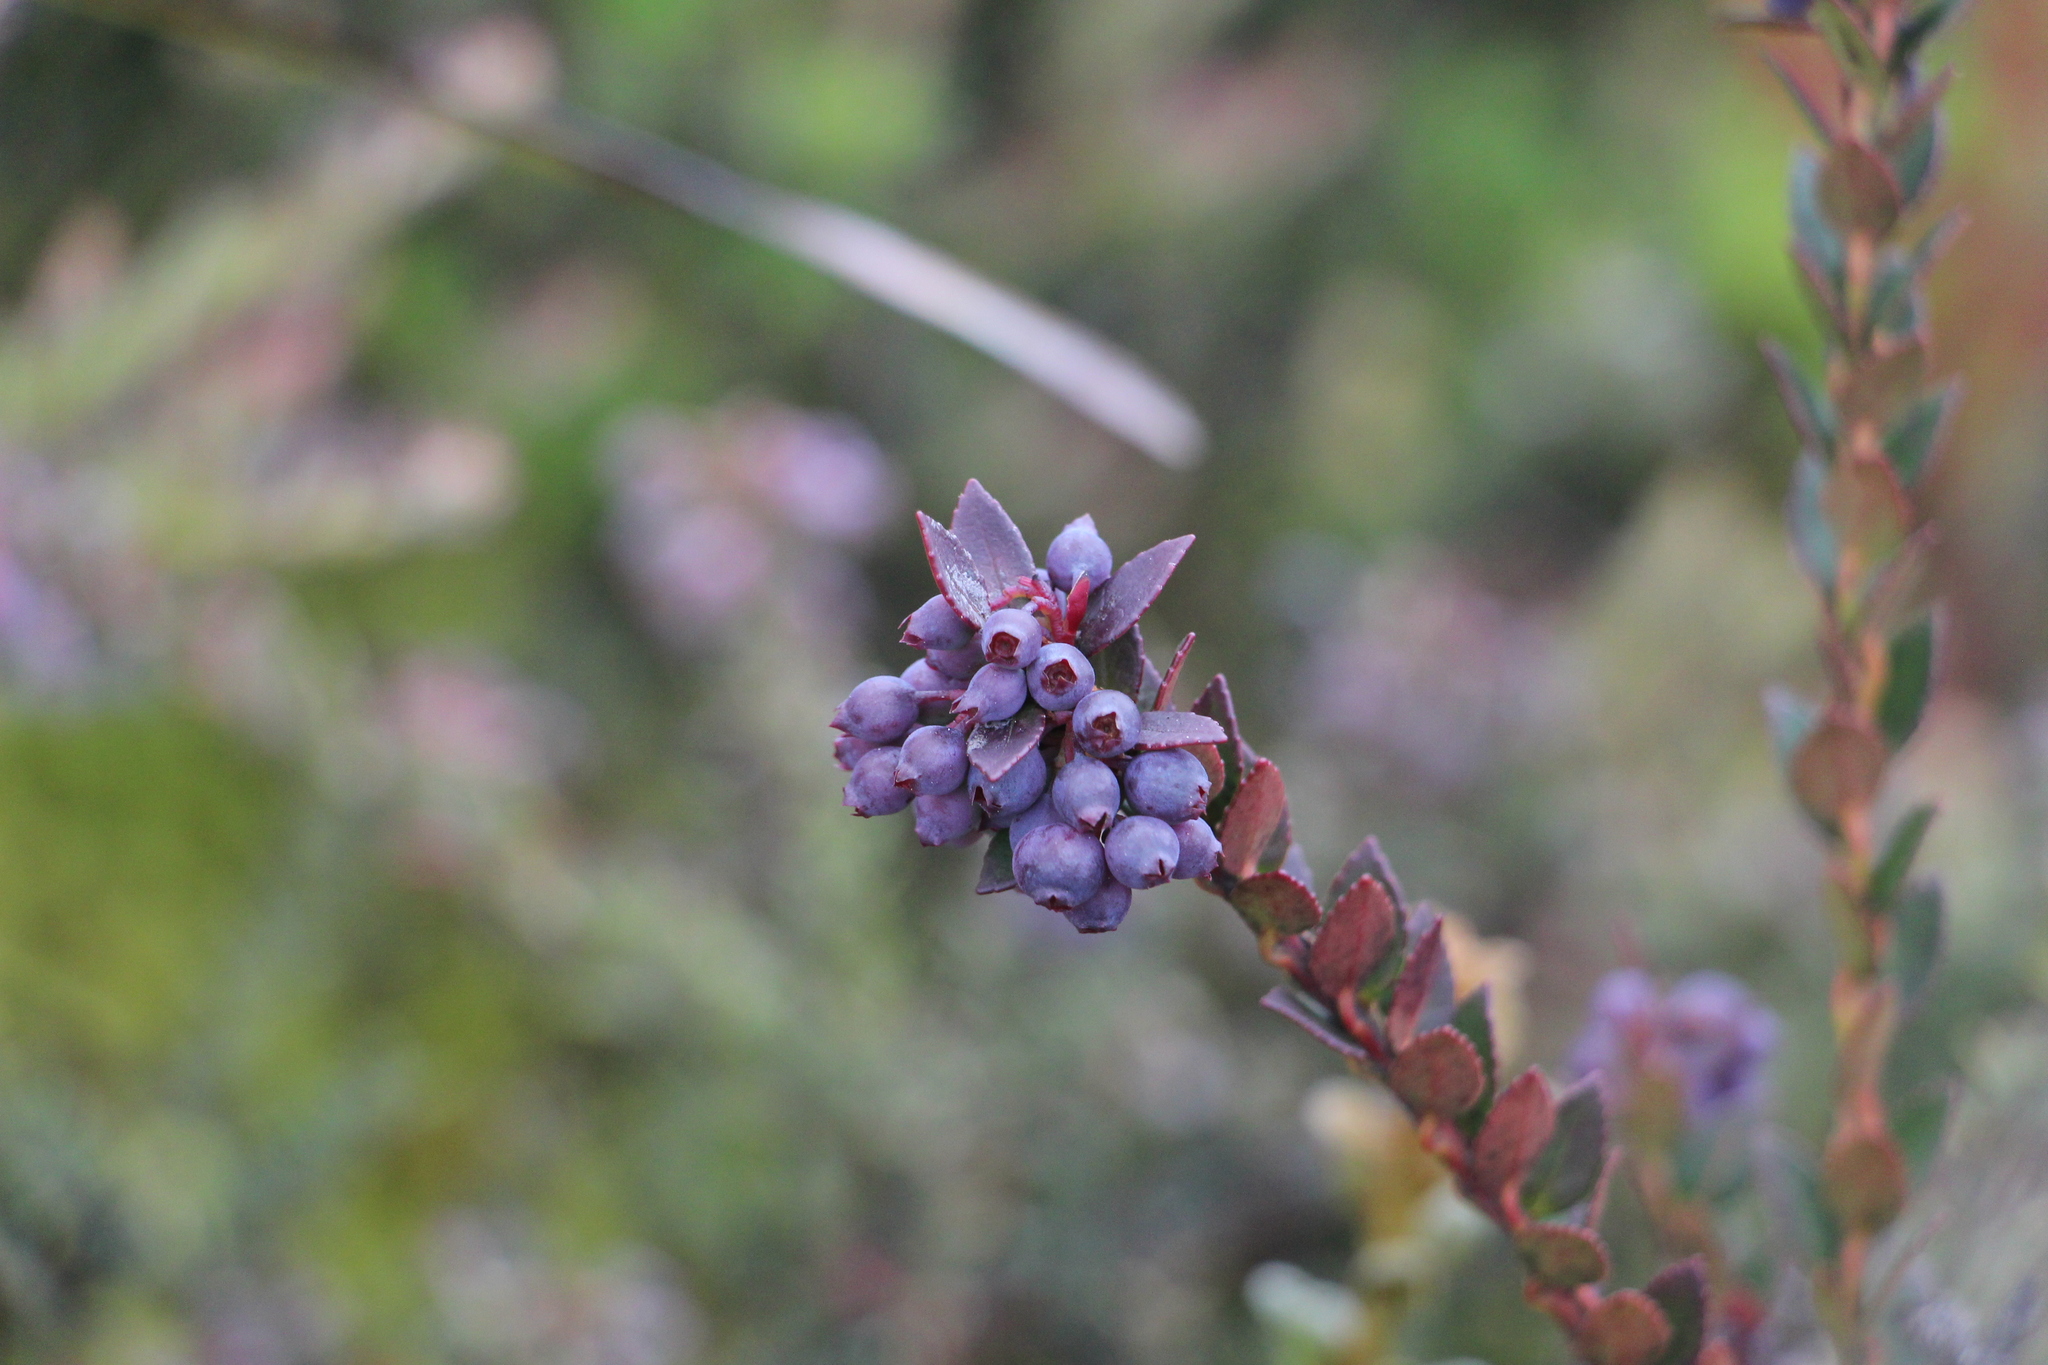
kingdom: Plantae
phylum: Tracheophyta
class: Magnoliopsida
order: Ericales
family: Ericaceae
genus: Vaccinium
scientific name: Vaccinium floribundum
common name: Colombian blueberry
